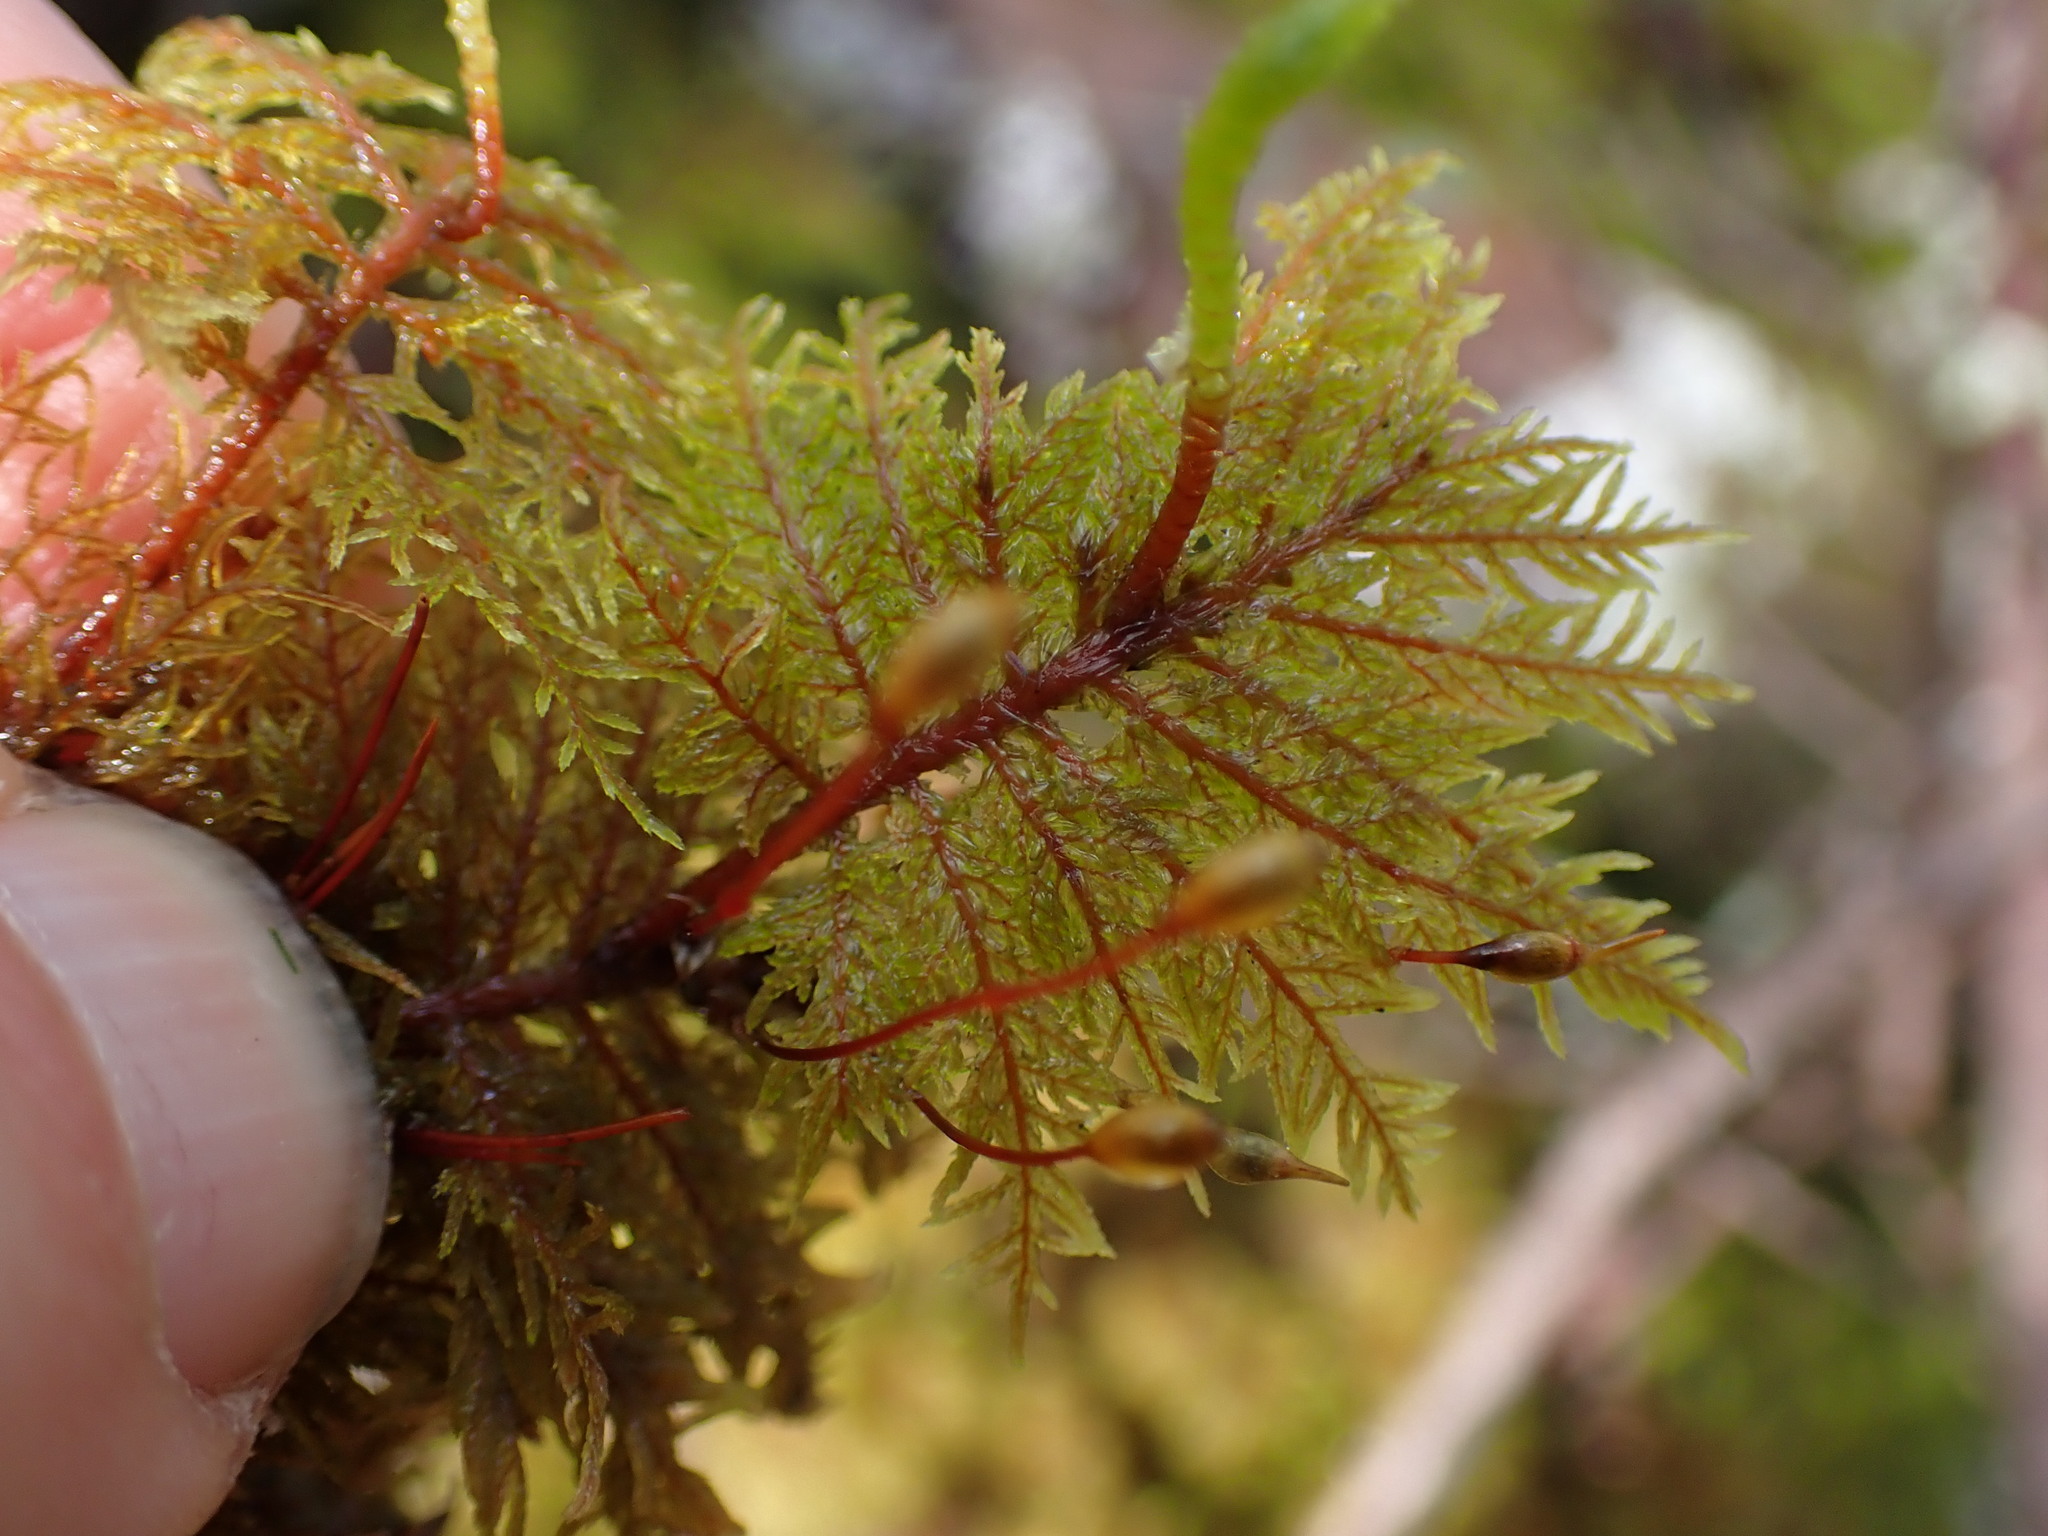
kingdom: Plantae
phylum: Bryophyta
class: Bryopsida
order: Hypnales
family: Hylocomiaceae
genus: Hylocomium
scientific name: Hylocomium splendens
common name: Stairstep moss
